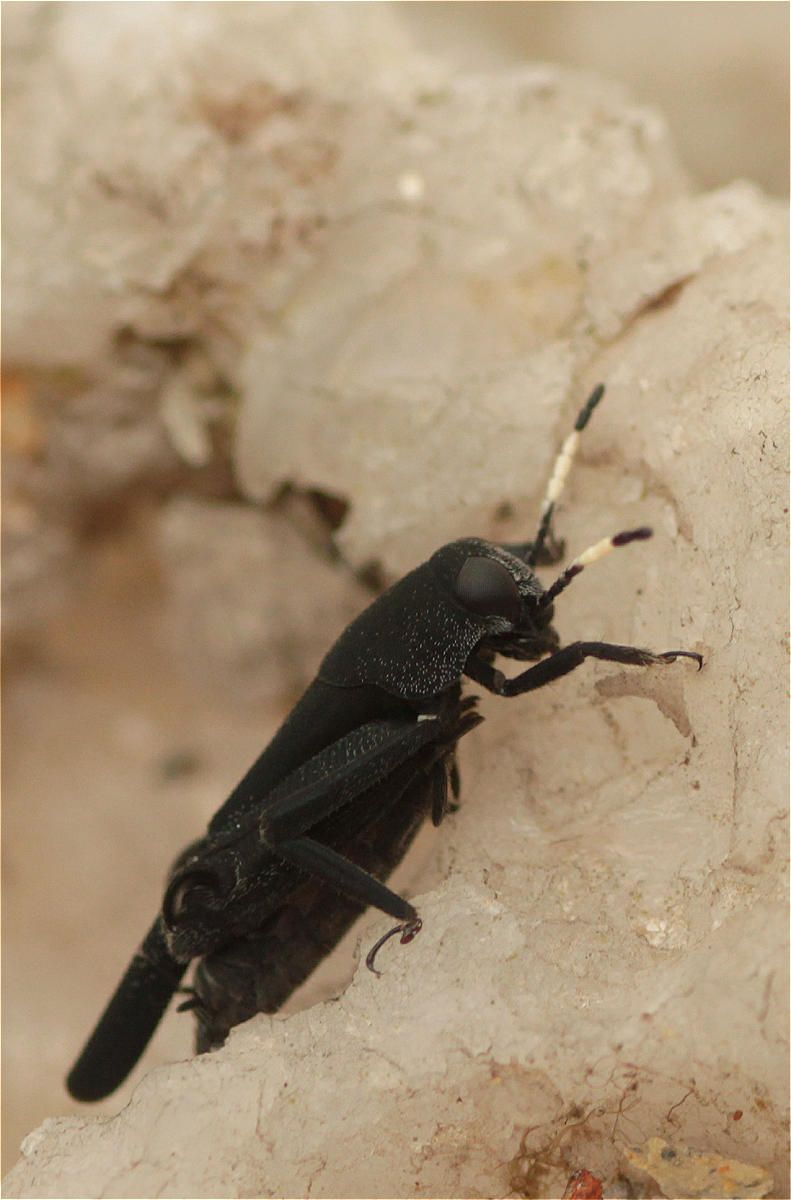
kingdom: Animalia
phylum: Arthropoda
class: Insecta
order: Orthoptera
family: Ripipterygidae
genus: Ripipteryx
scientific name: Ripipteryx forceps
